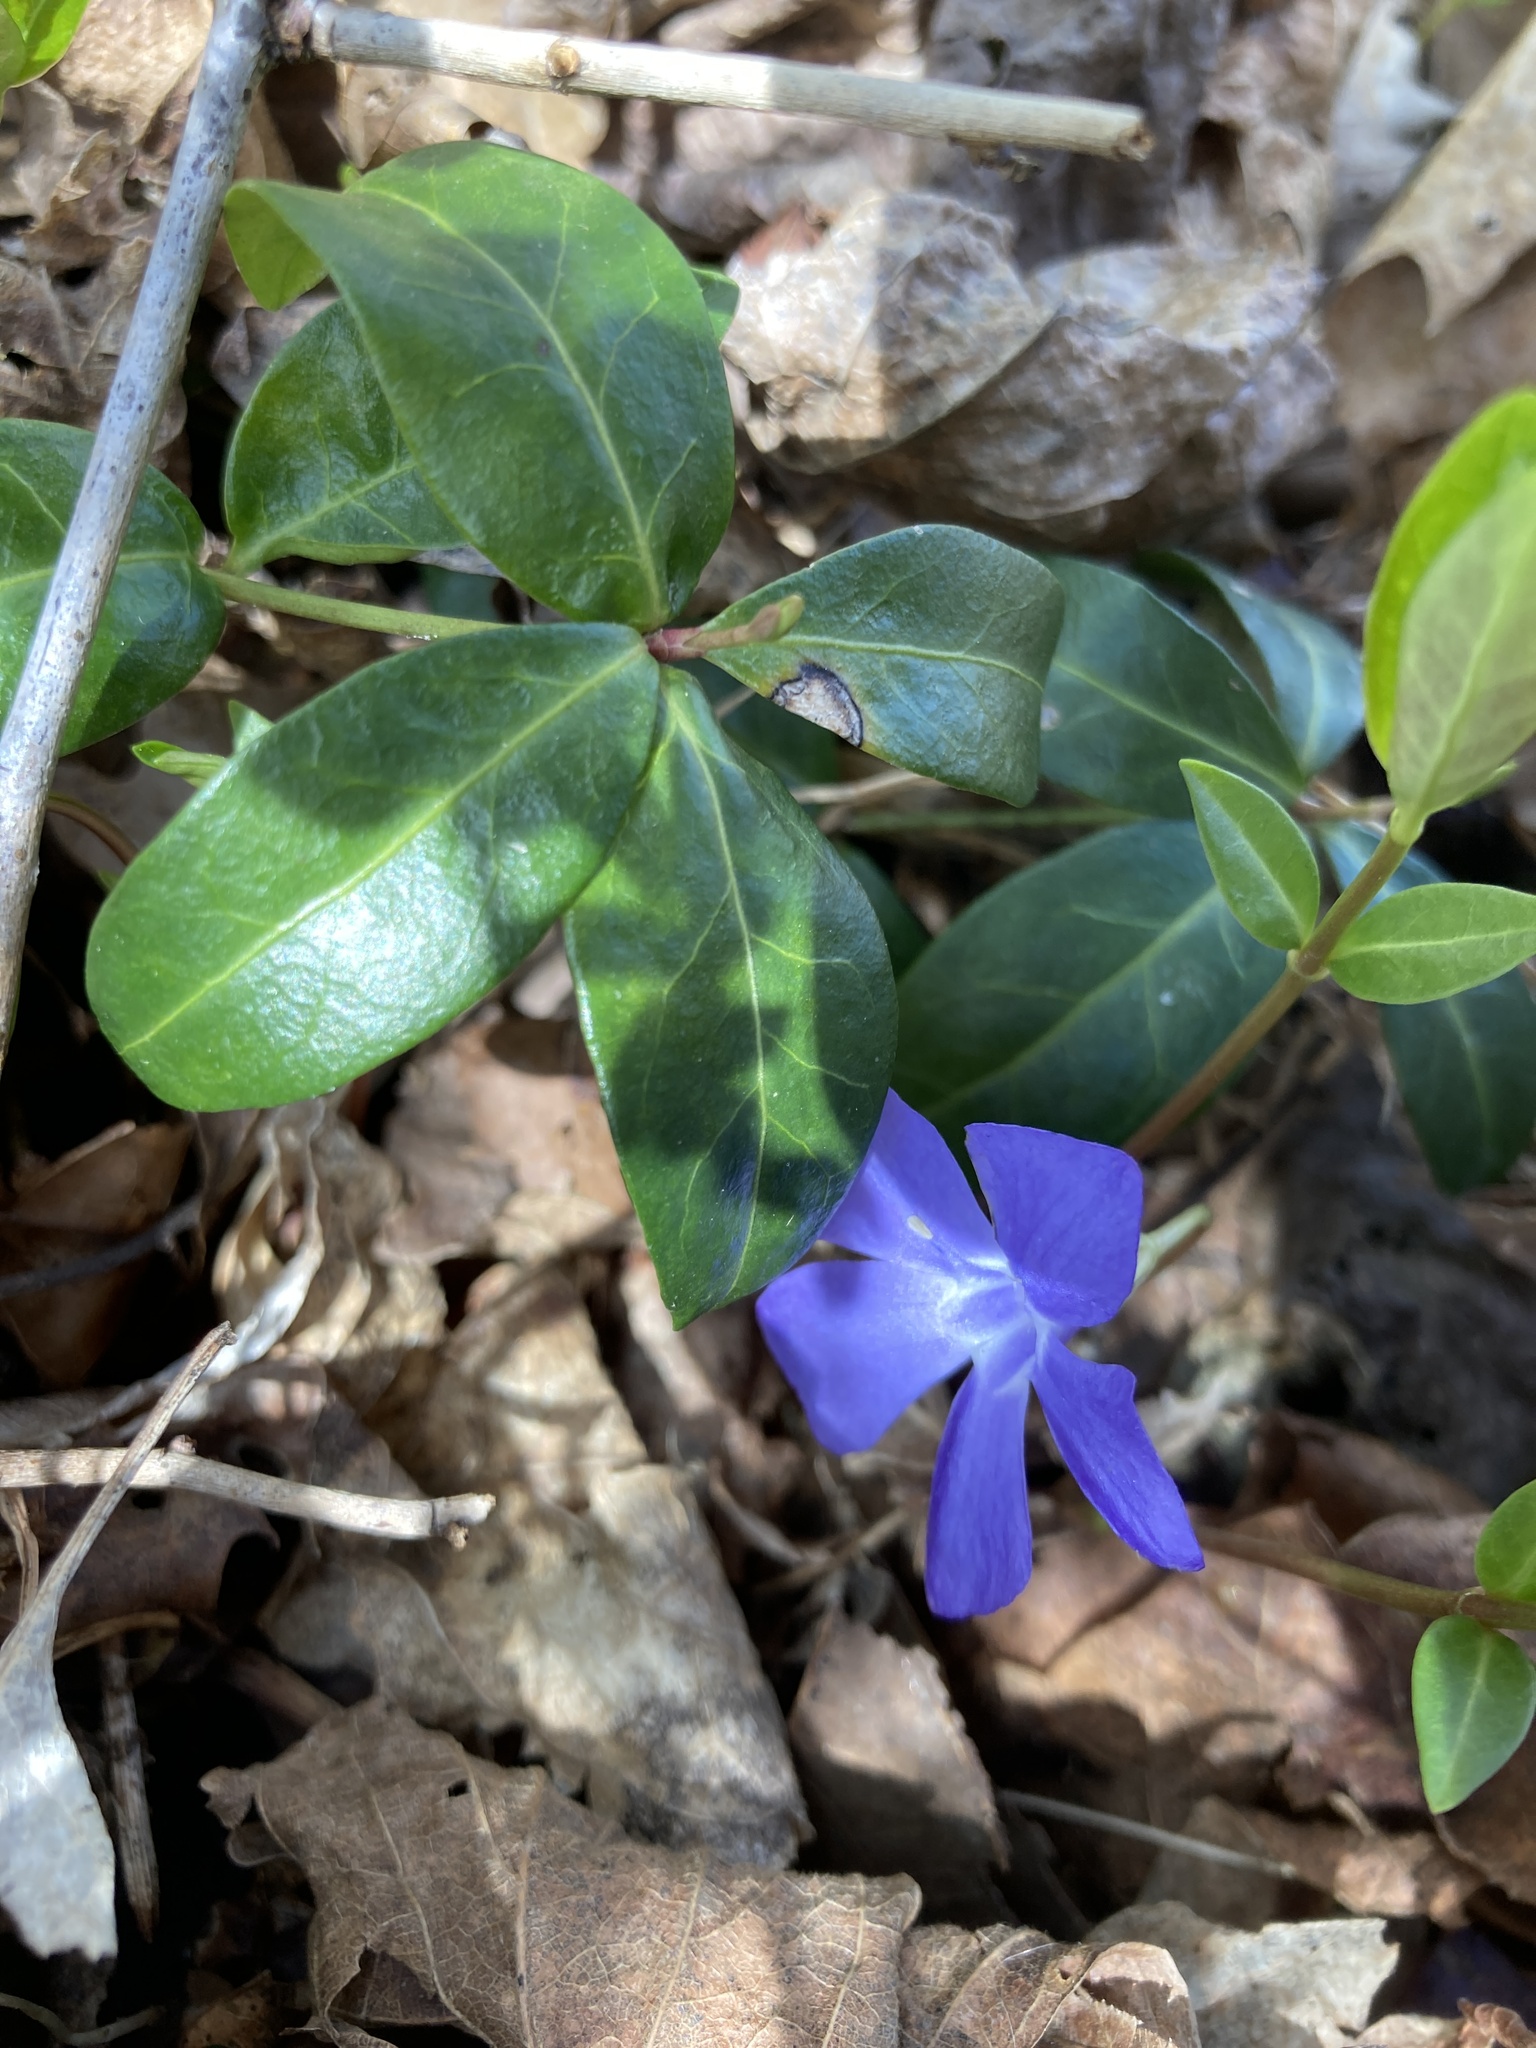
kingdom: Plantae
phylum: Tracheophyta
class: Magnoliopsida
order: Gentianales
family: Apocynaceae
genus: Vinca
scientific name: Vinca minor
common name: Lesser periwinkle
